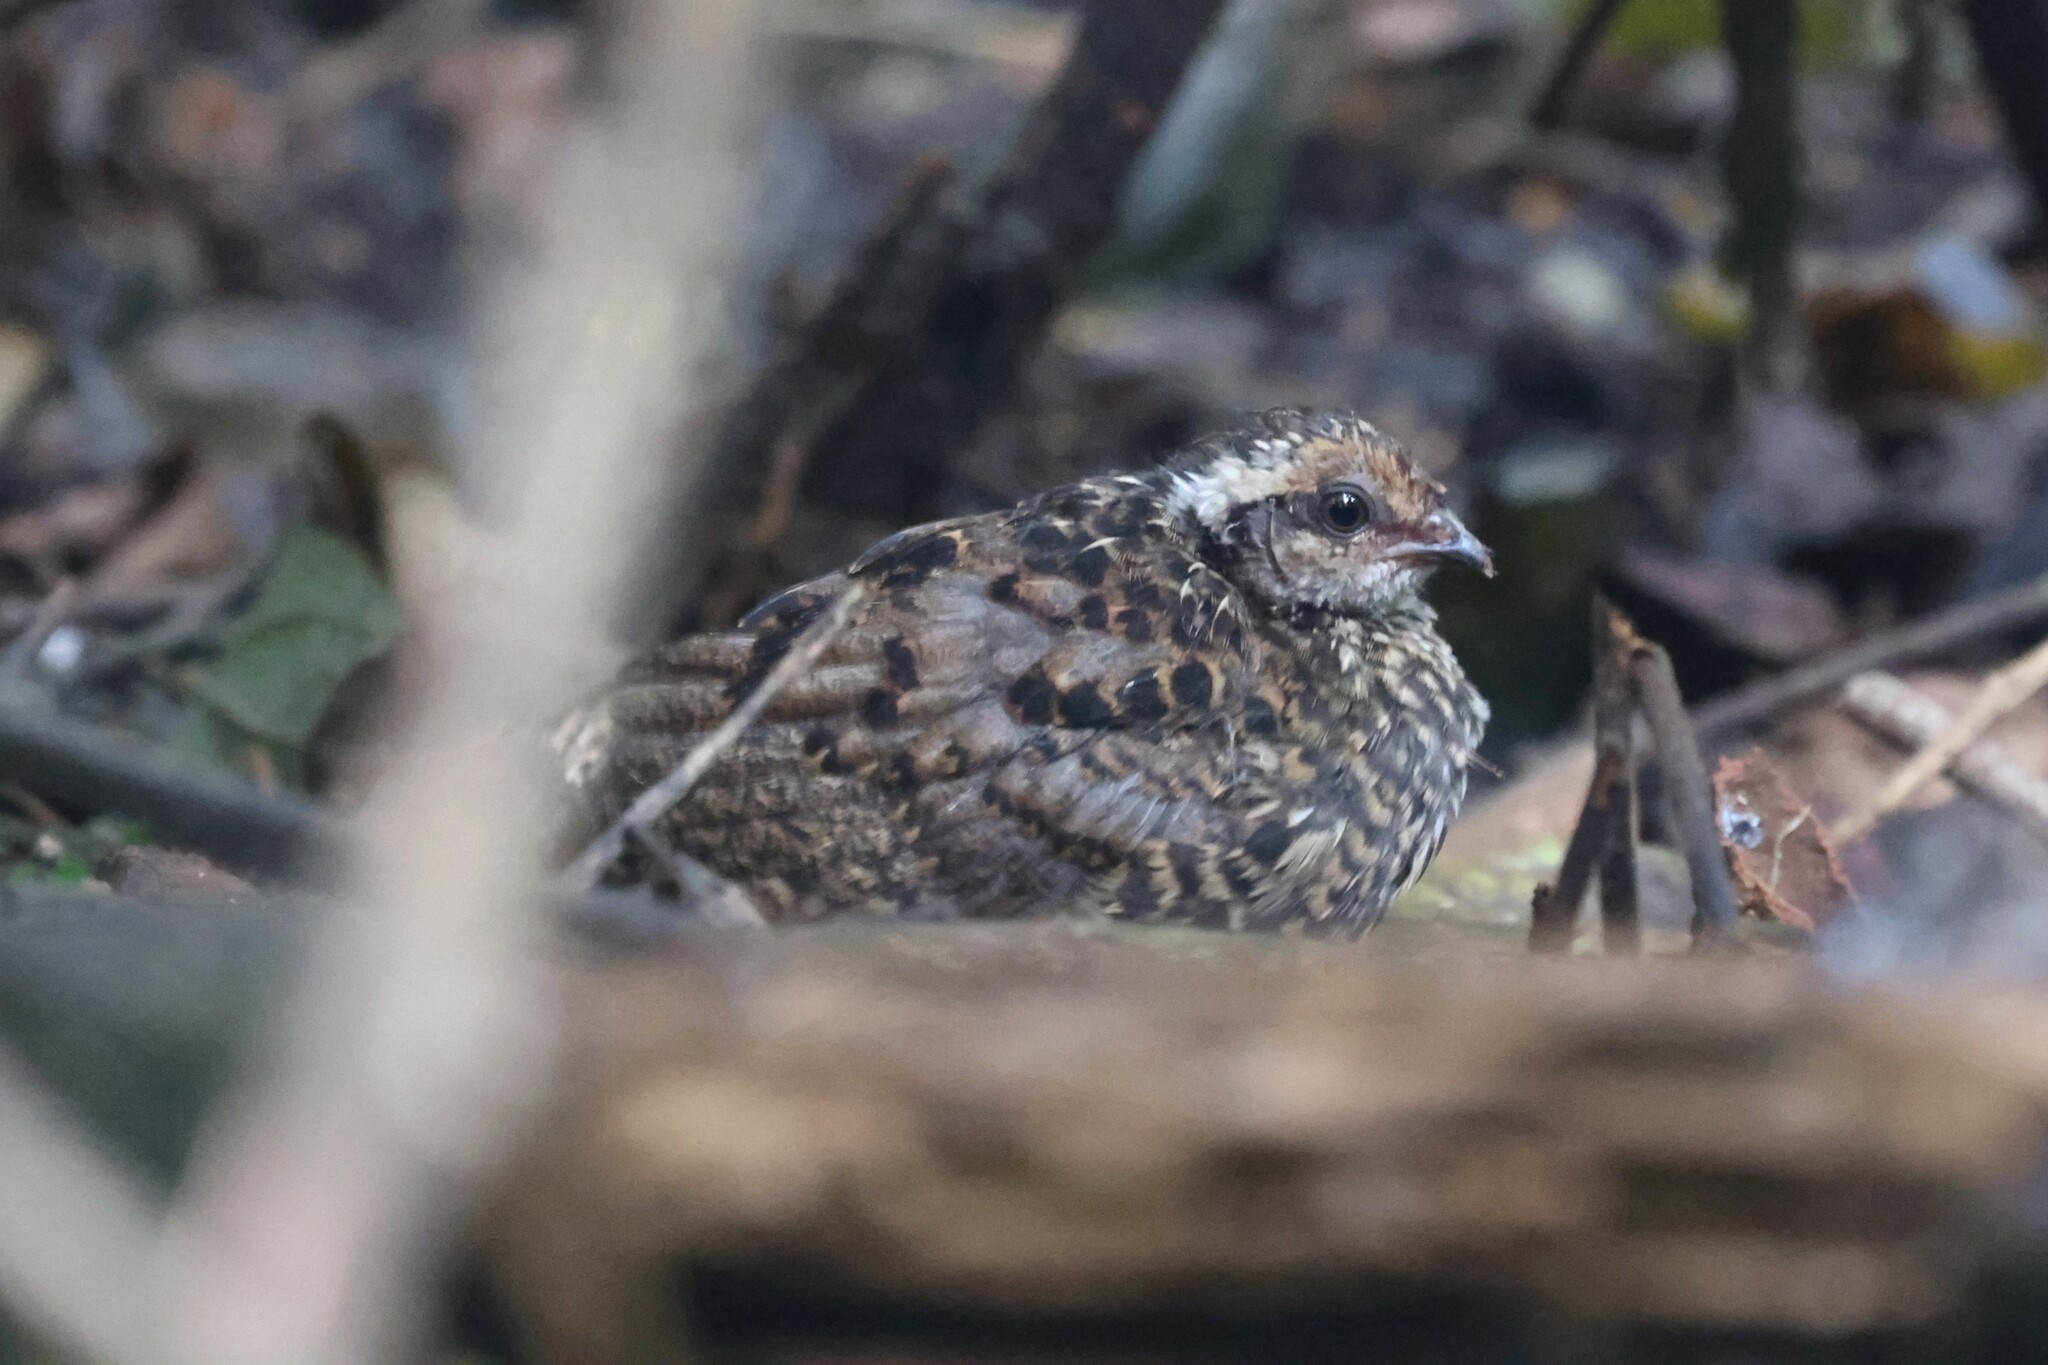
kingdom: Animalia
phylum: Chordata
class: Aves
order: Galliformes
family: Odontophoridae
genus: Ptilopachus
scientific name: Ptilopachus nahani
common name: Nahan's partridge
